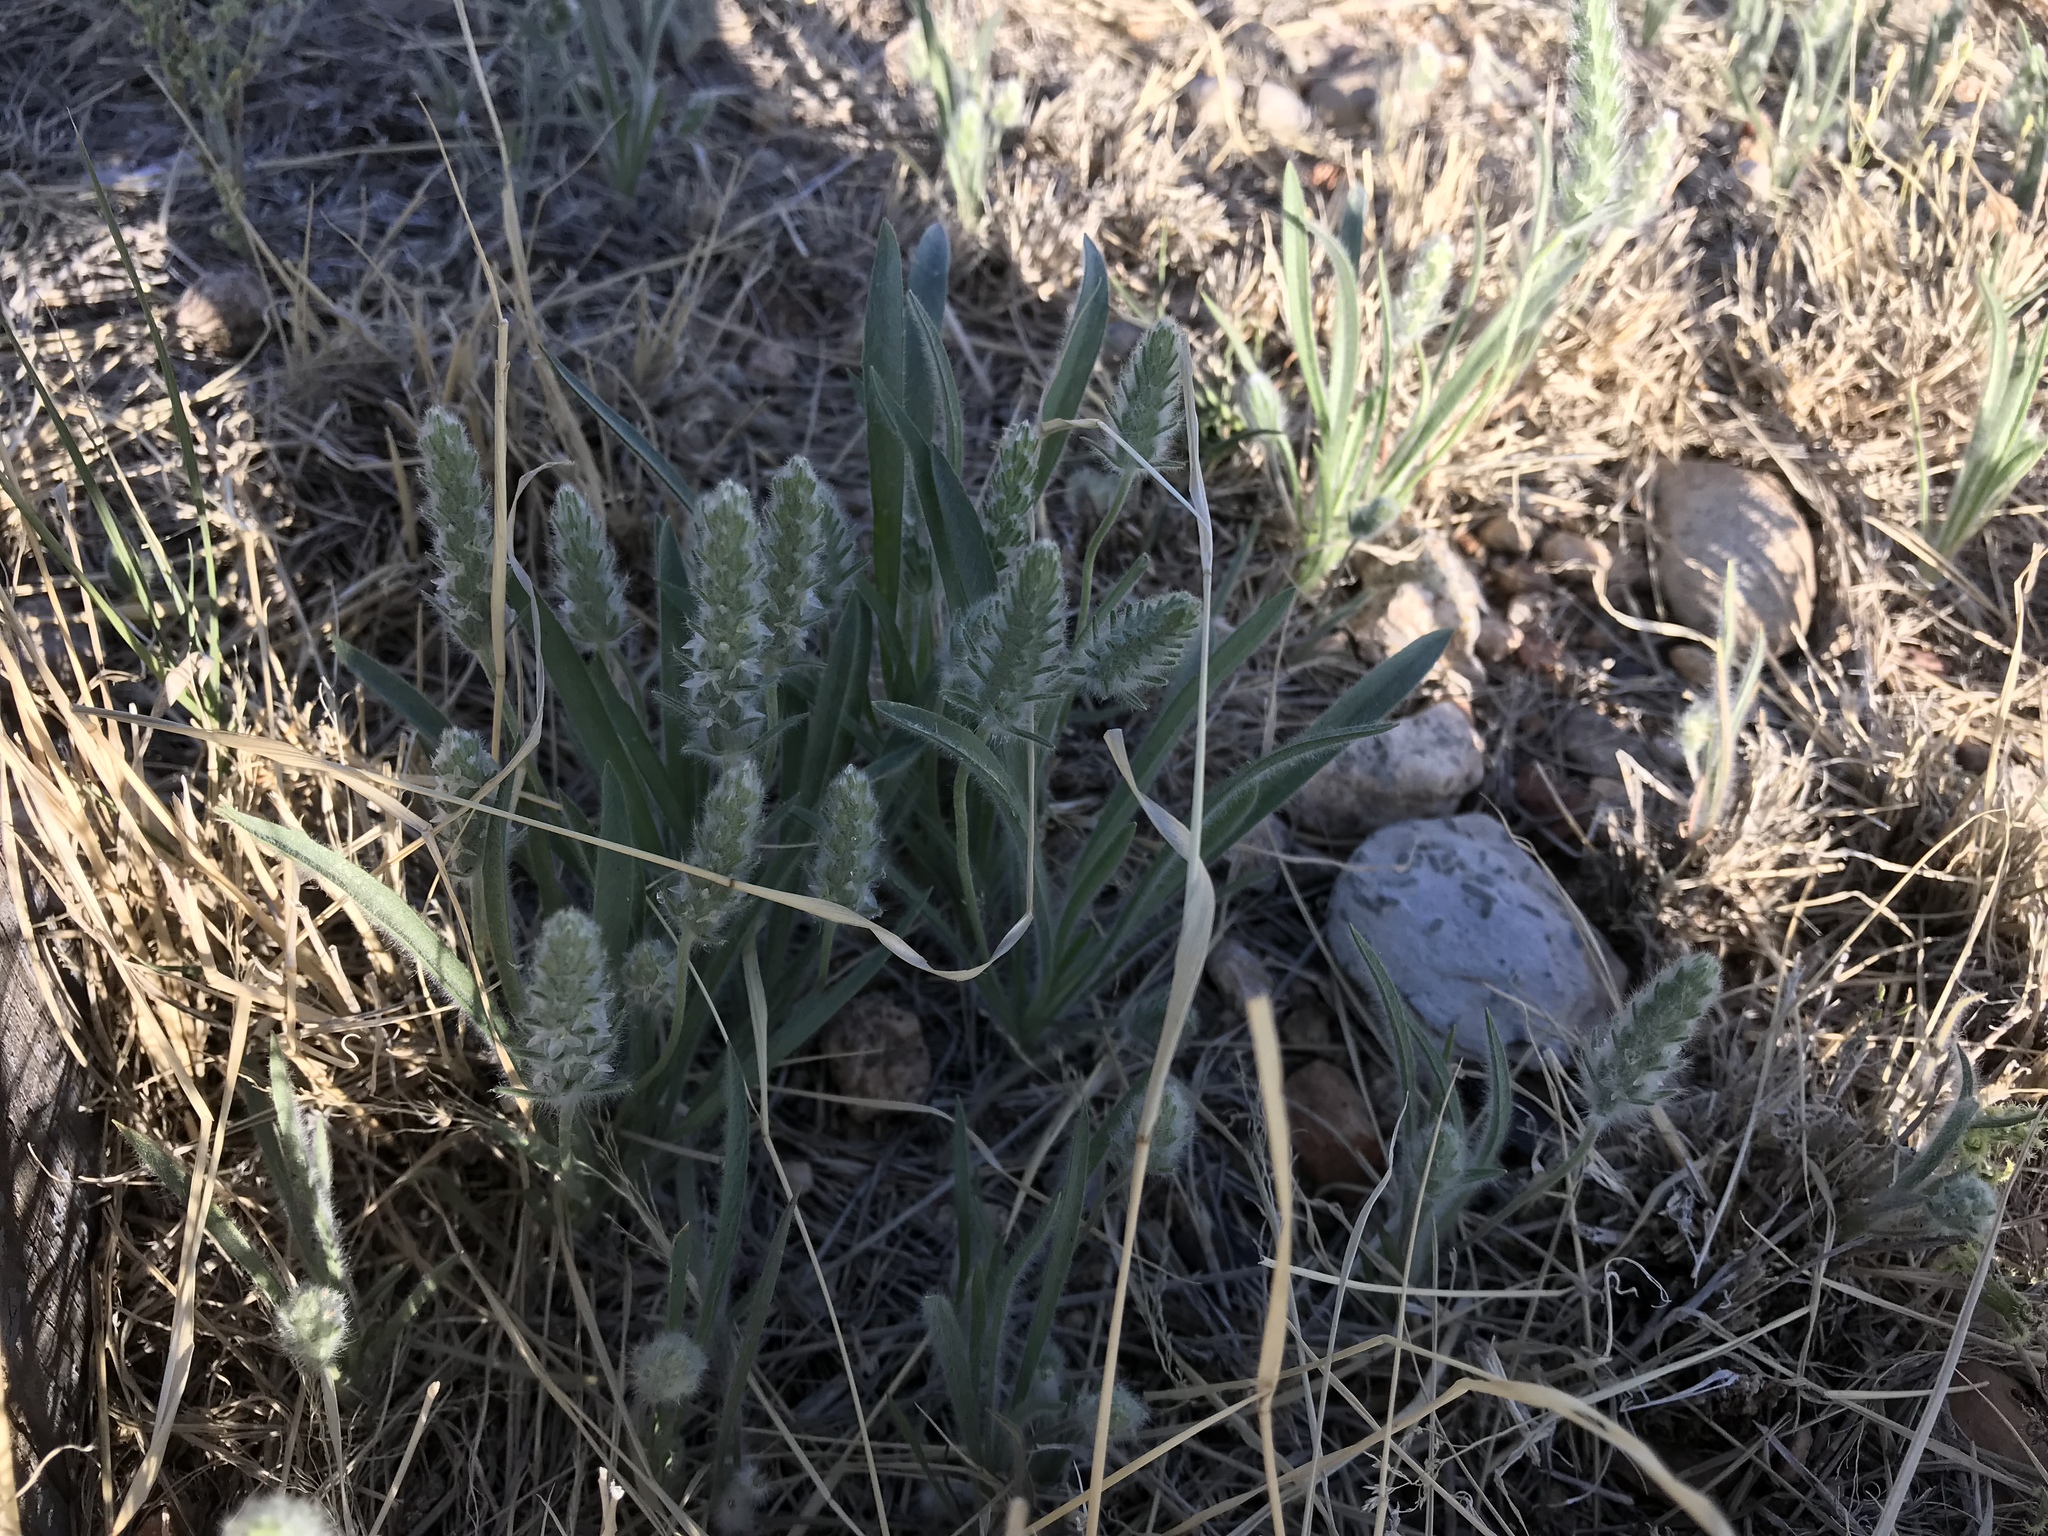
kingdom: Plantae
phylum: Tracheophyta
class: Magnoliopsida
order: Lamiales
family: Plantaginaceae
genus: Plantago
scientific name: Plantago patagonica
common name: Patagonia indian-wheat
